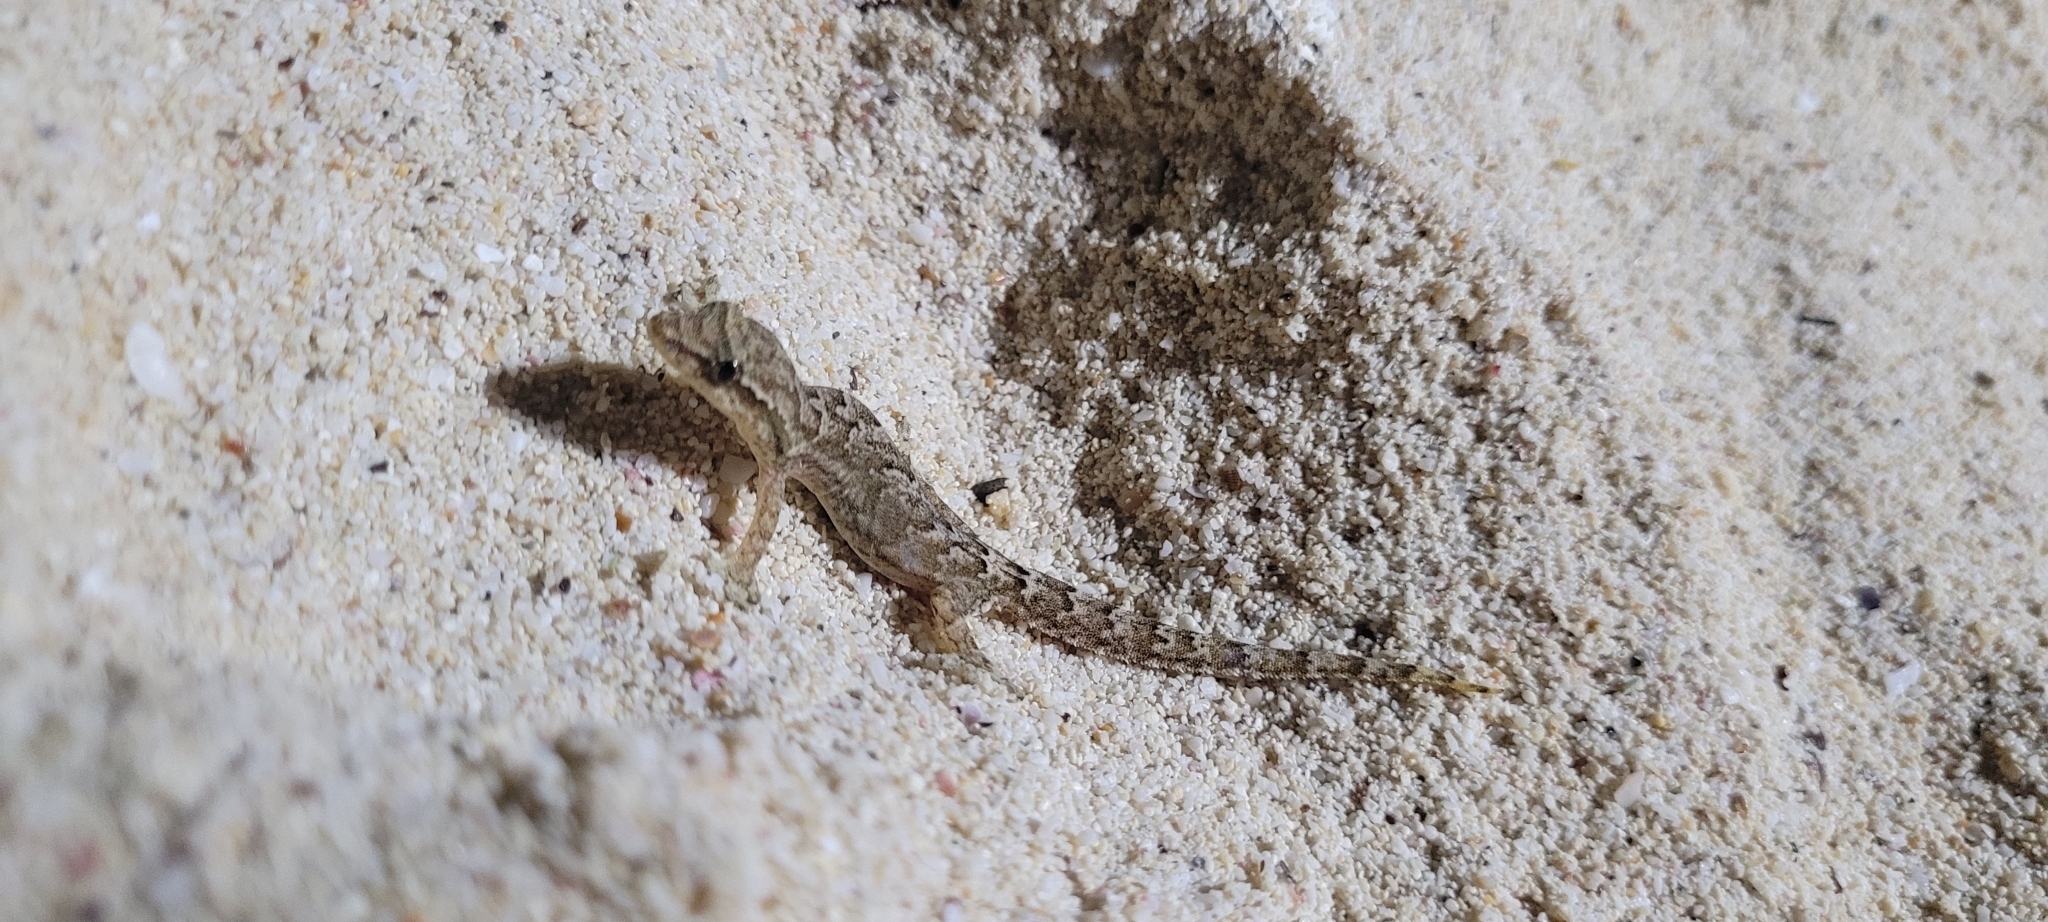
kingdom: Animalia
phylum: Chordata
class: Squamata
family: Gekkonidae
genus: Lepidodactylus
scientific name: Lepidodactylus lugubris
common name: Mourning gecko
